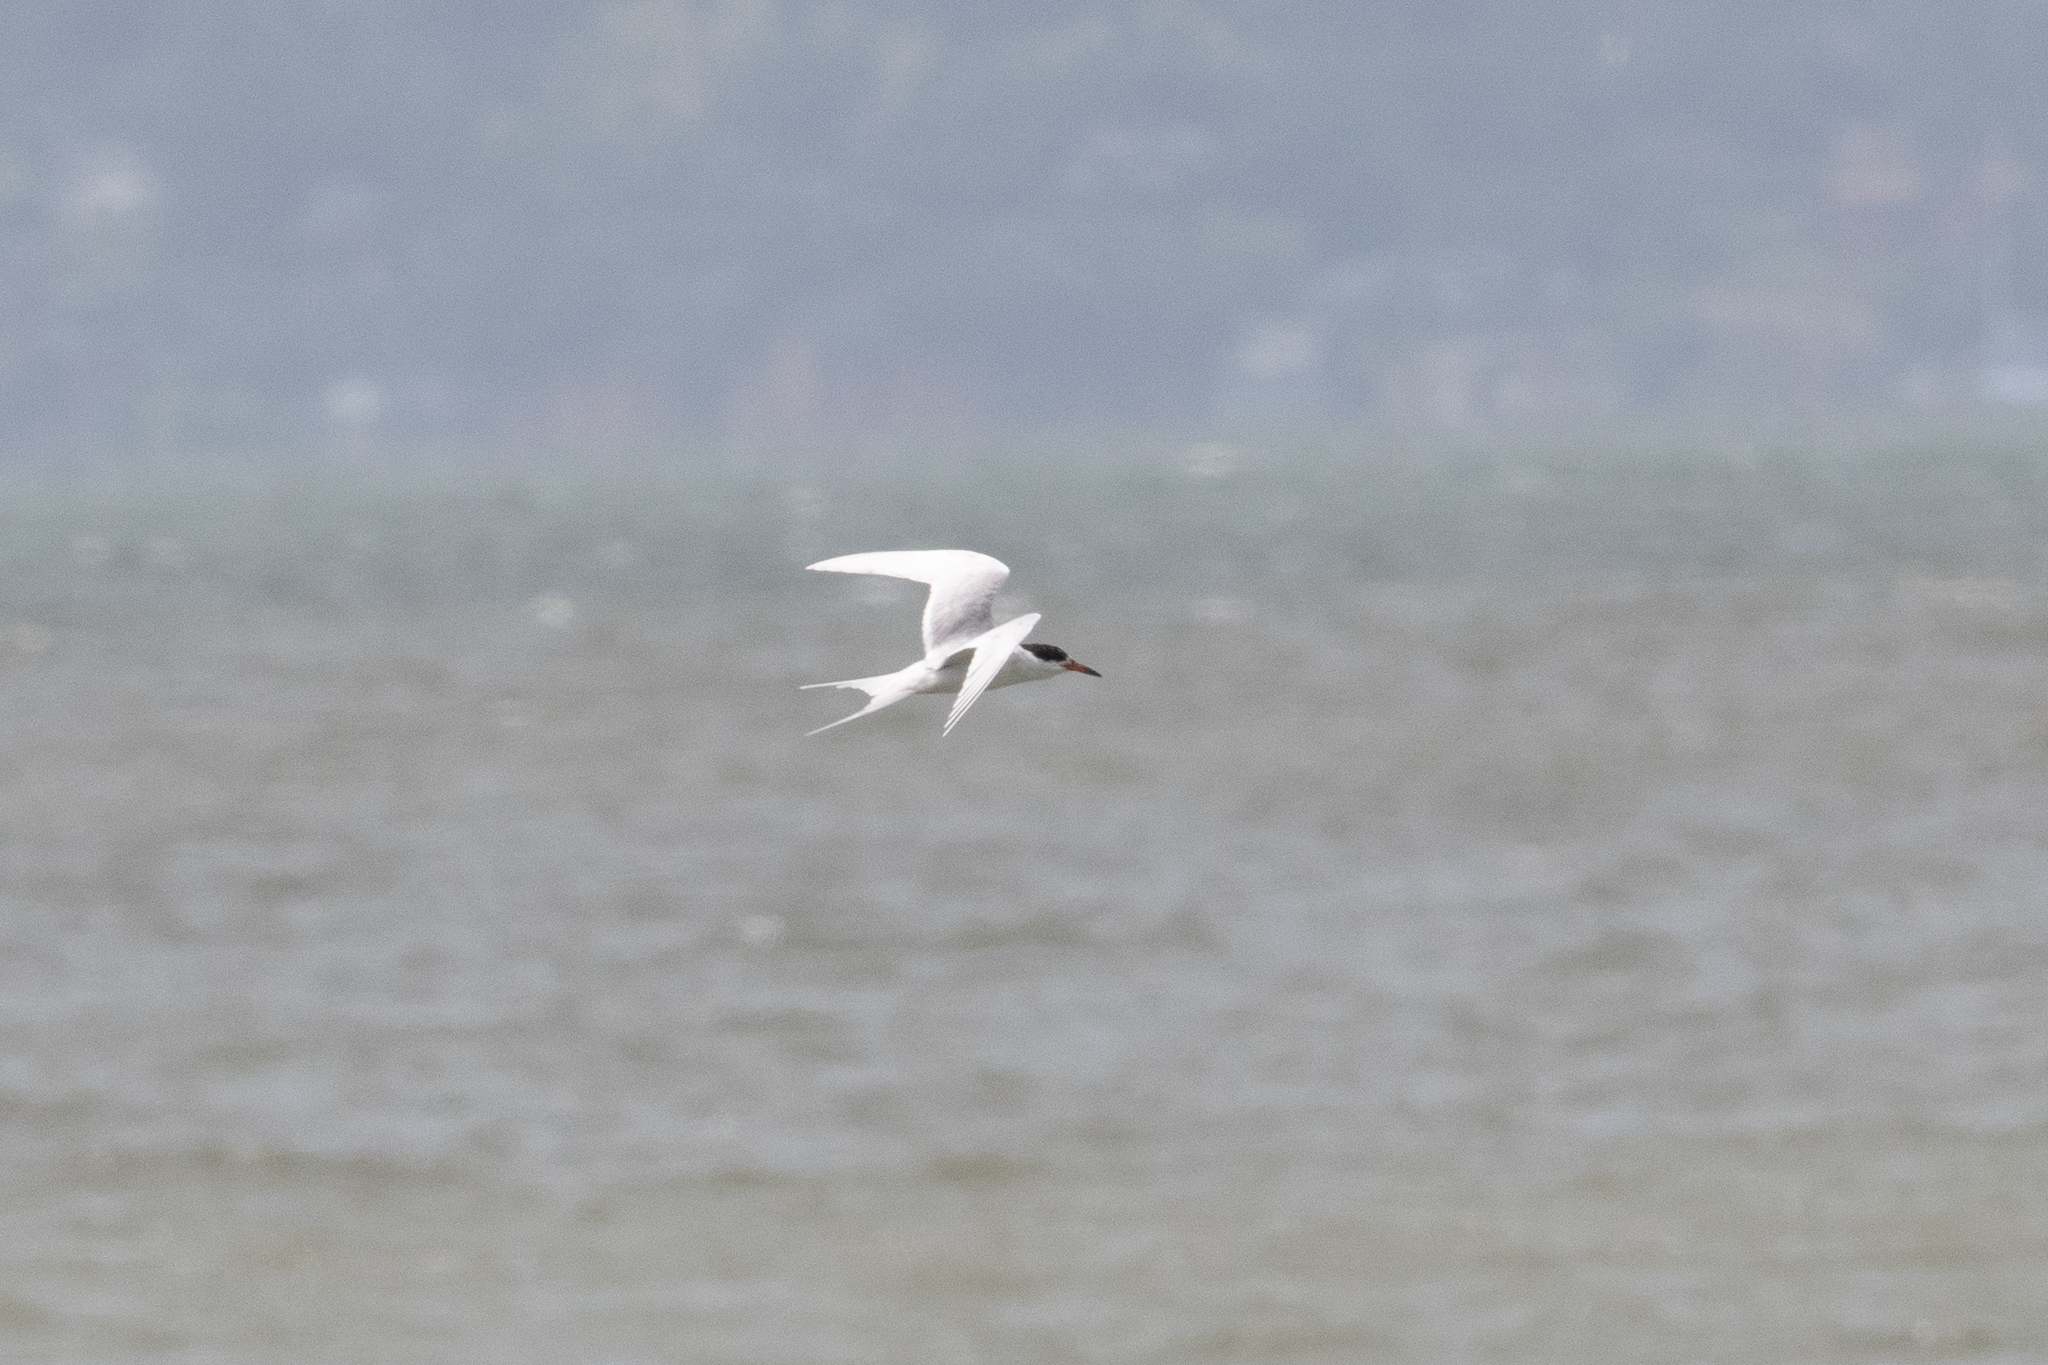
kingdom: Animalia
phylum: Chordata
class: Aves
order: Charadriiformes
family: Laridae
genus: Sterna
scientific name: Sterna forsteri
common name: Forster's tern
